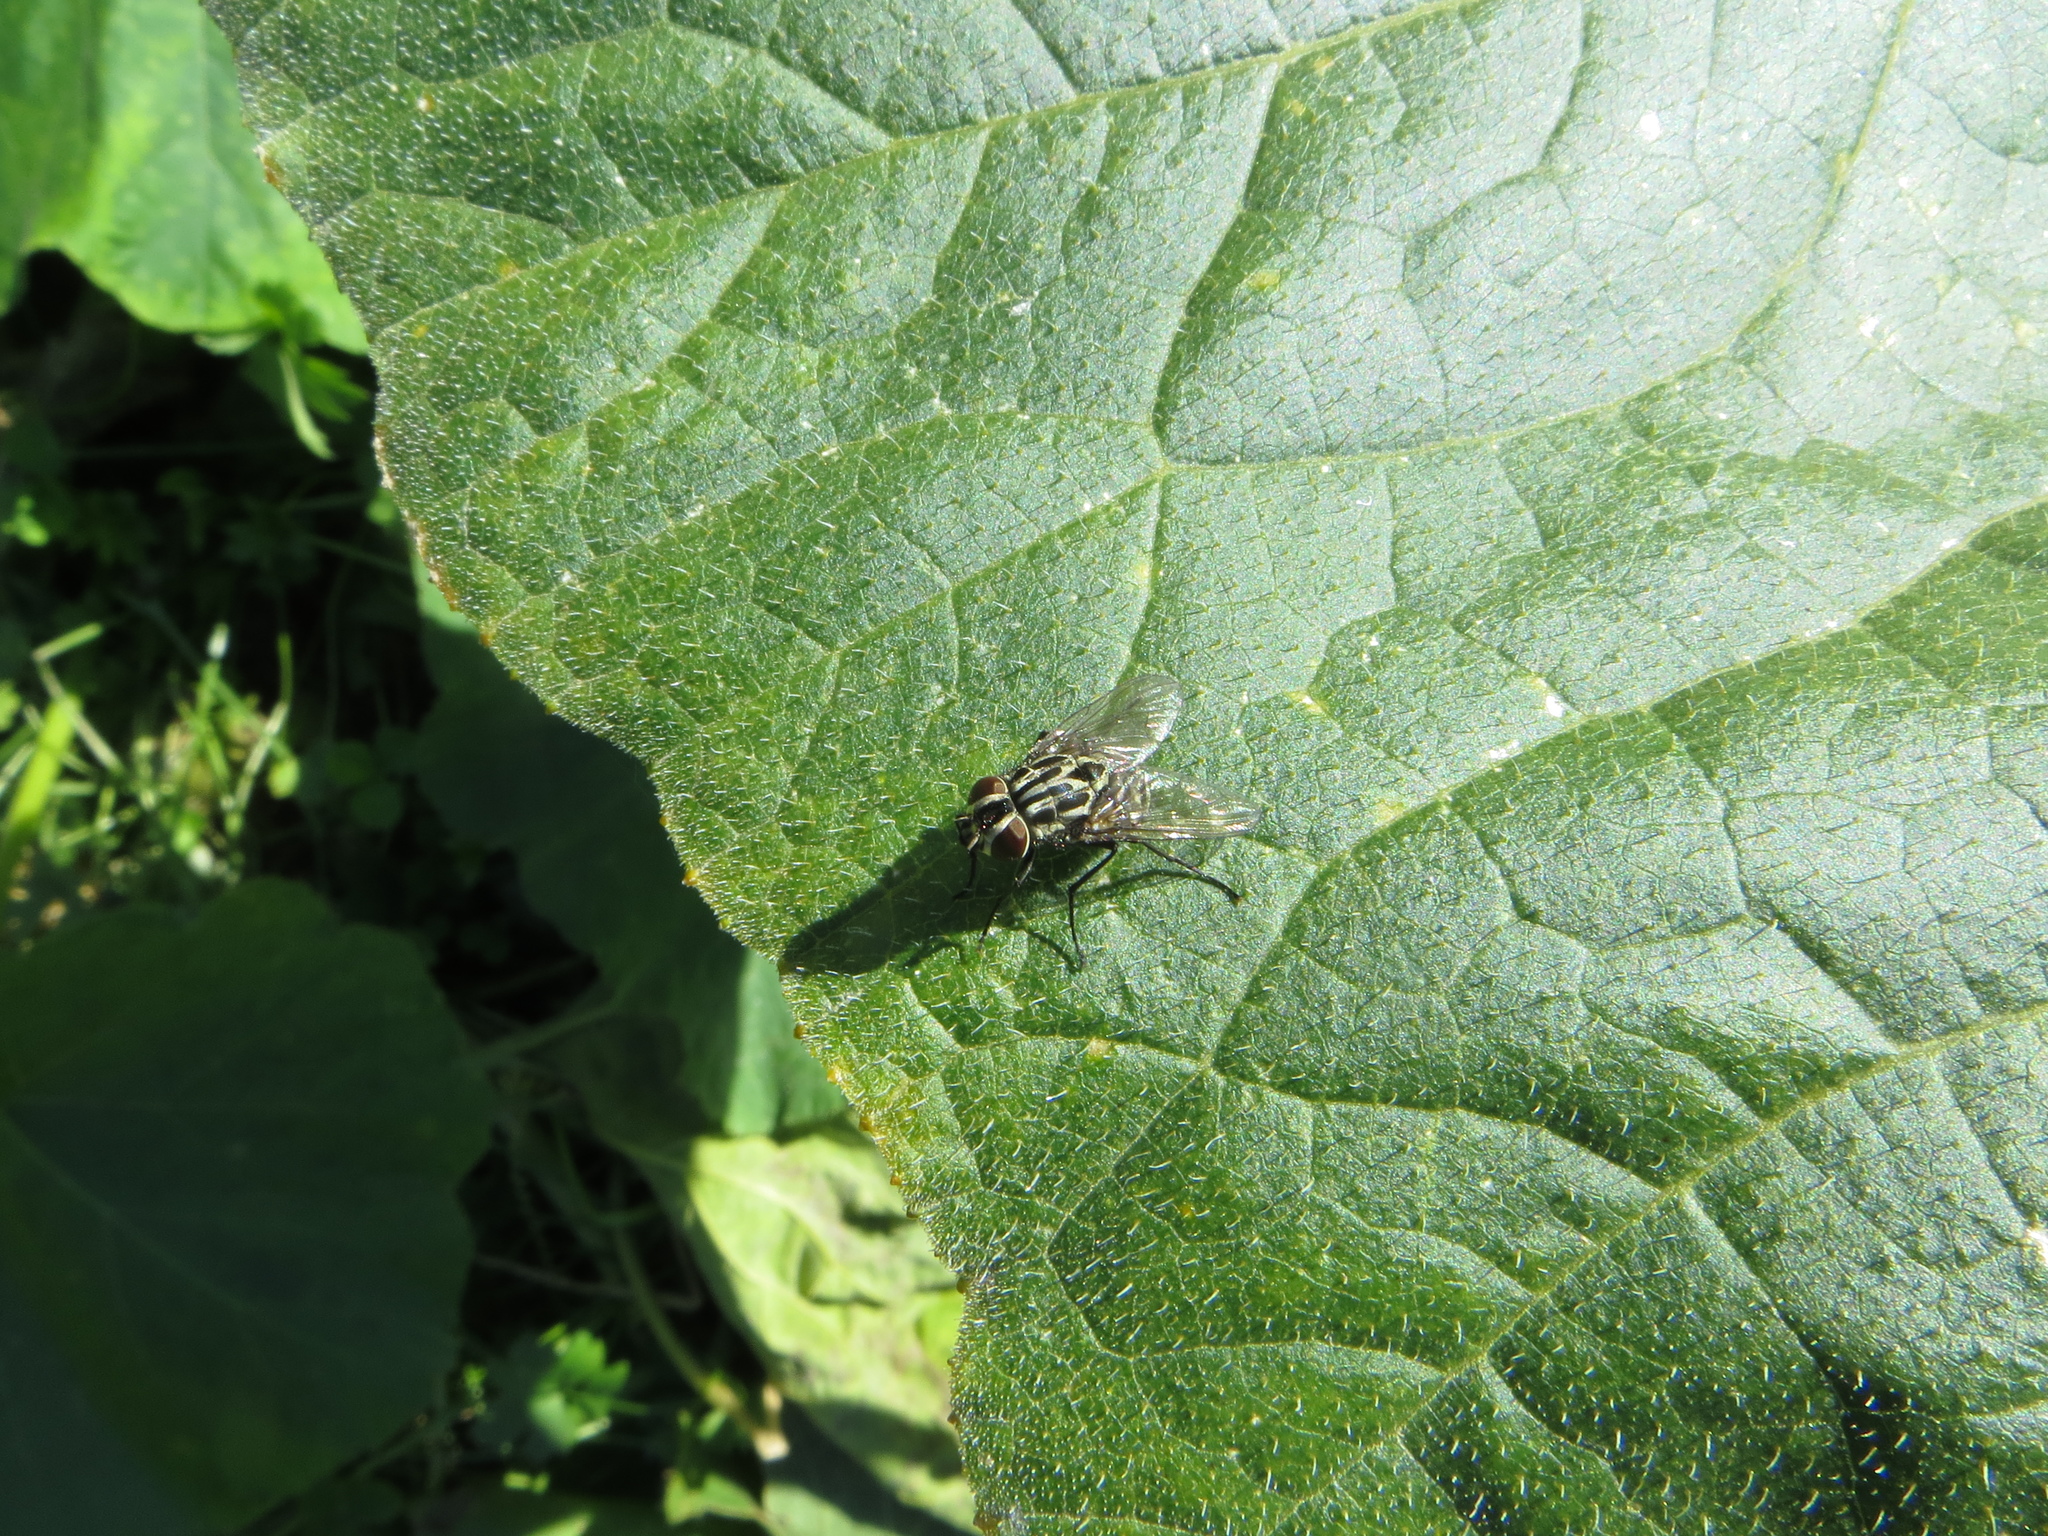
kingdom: Animalia
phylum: Arthropoda
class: Insecta
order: Diptera
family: Muscidae
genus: Graphomya
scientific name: Graphomya maculata
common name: Muscid fly
